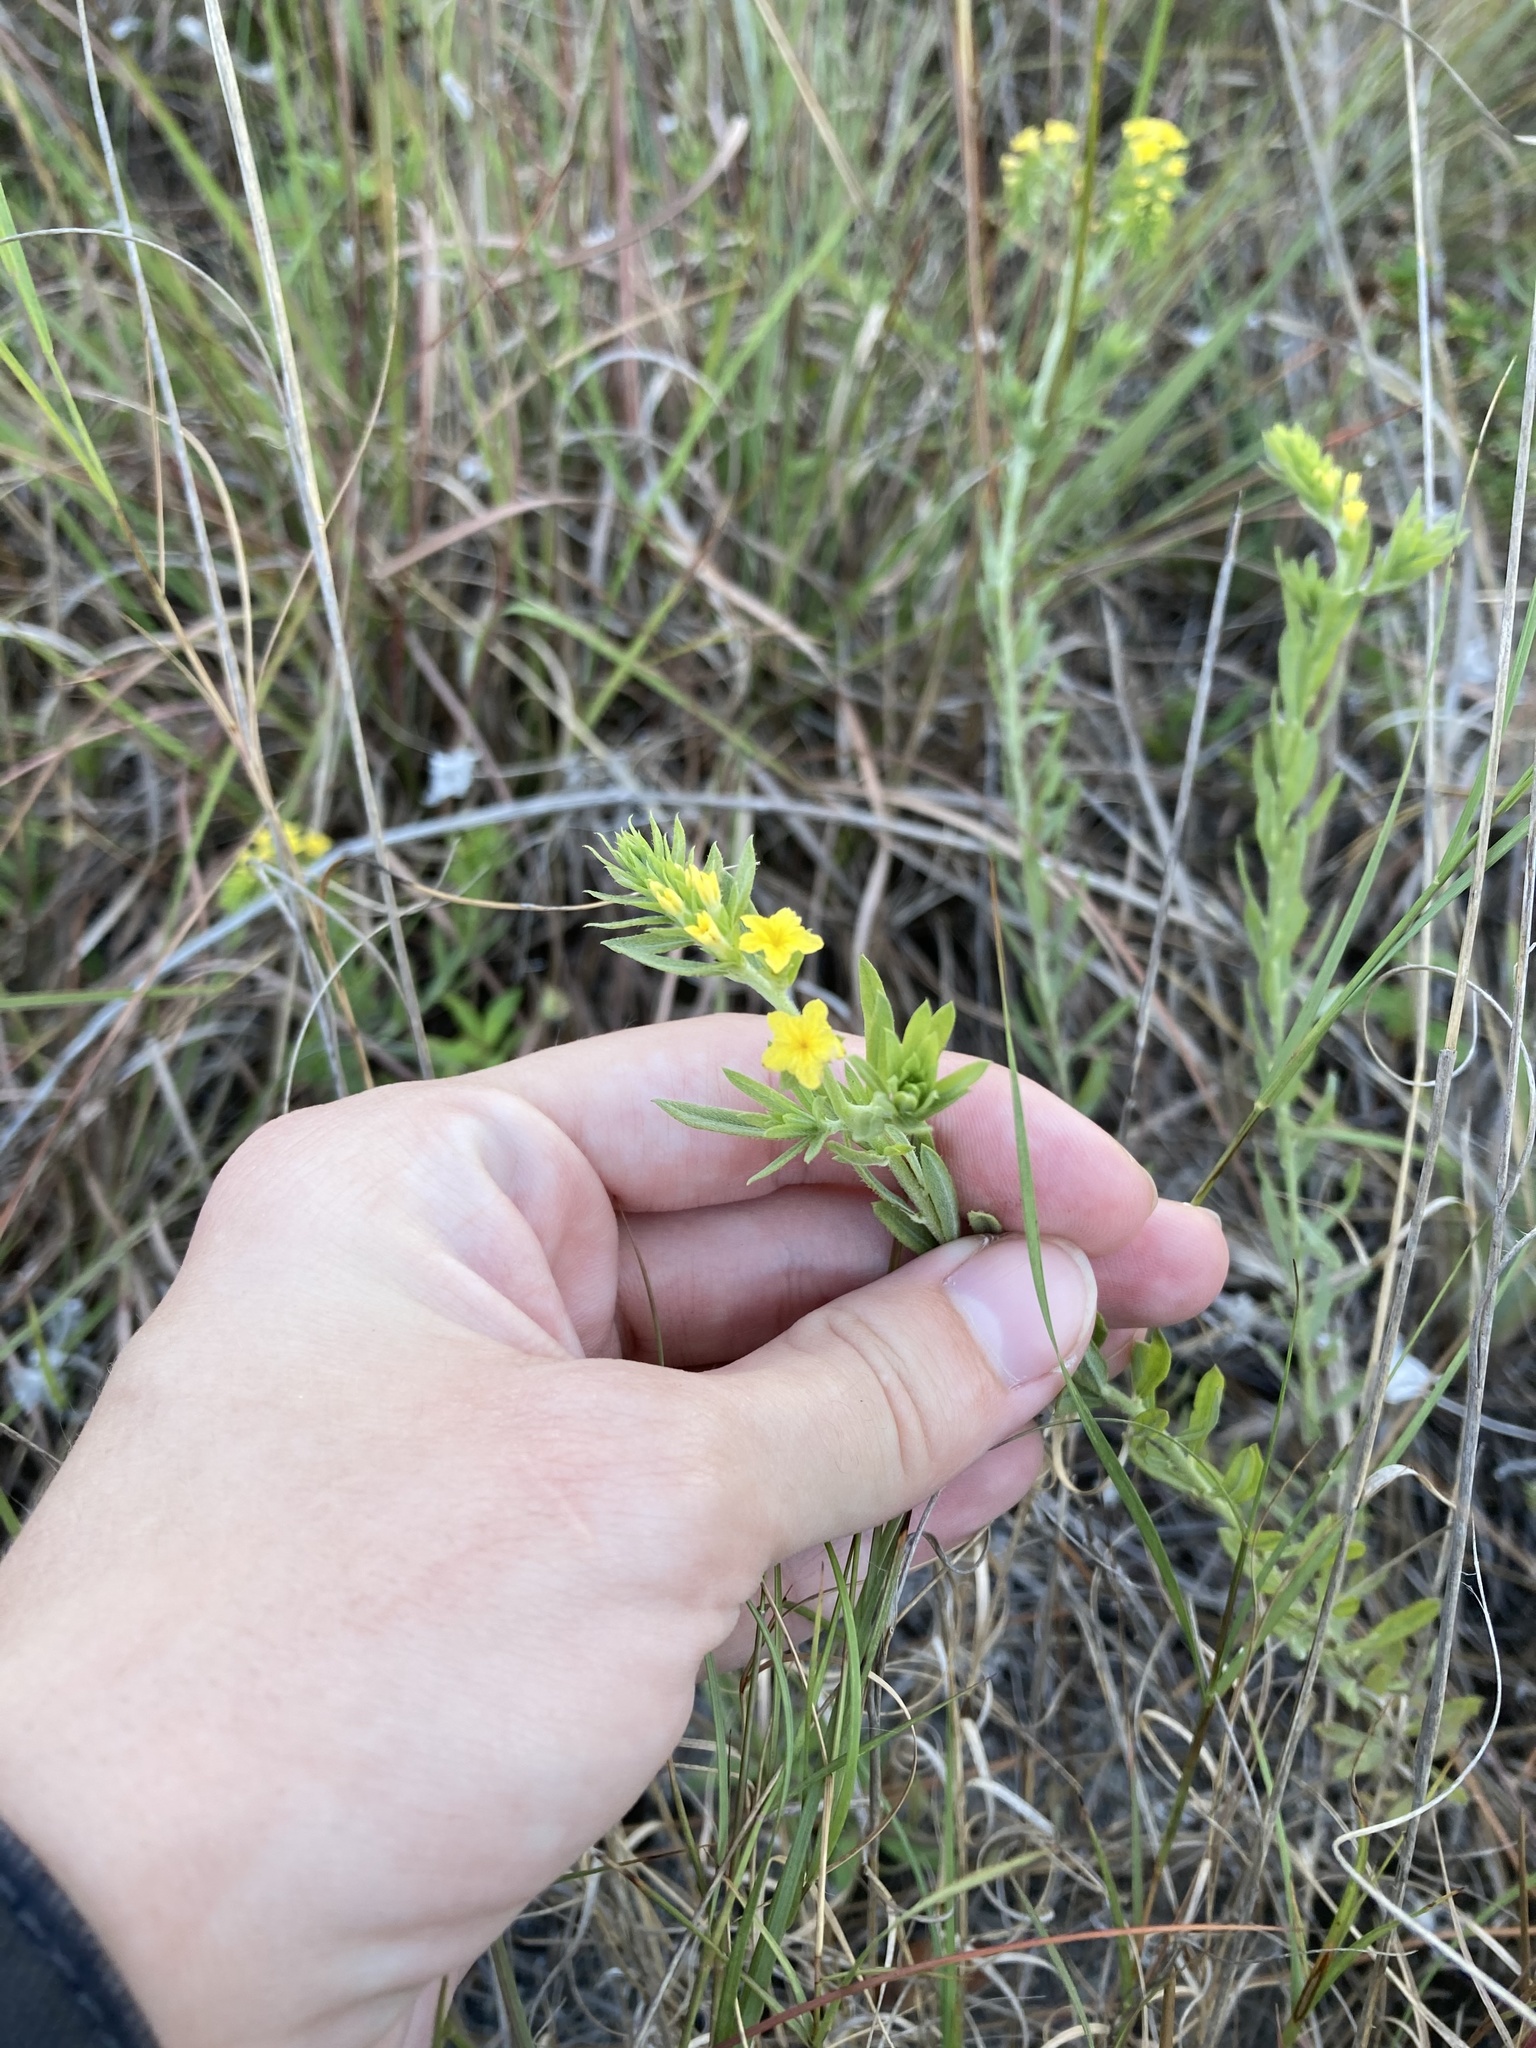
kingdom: Plantae
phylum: Tracheophyta
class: Magnoliopsida
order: Boraginales
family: Heliotropiaceae
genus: Euploca
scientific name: Euploca polyphylla
